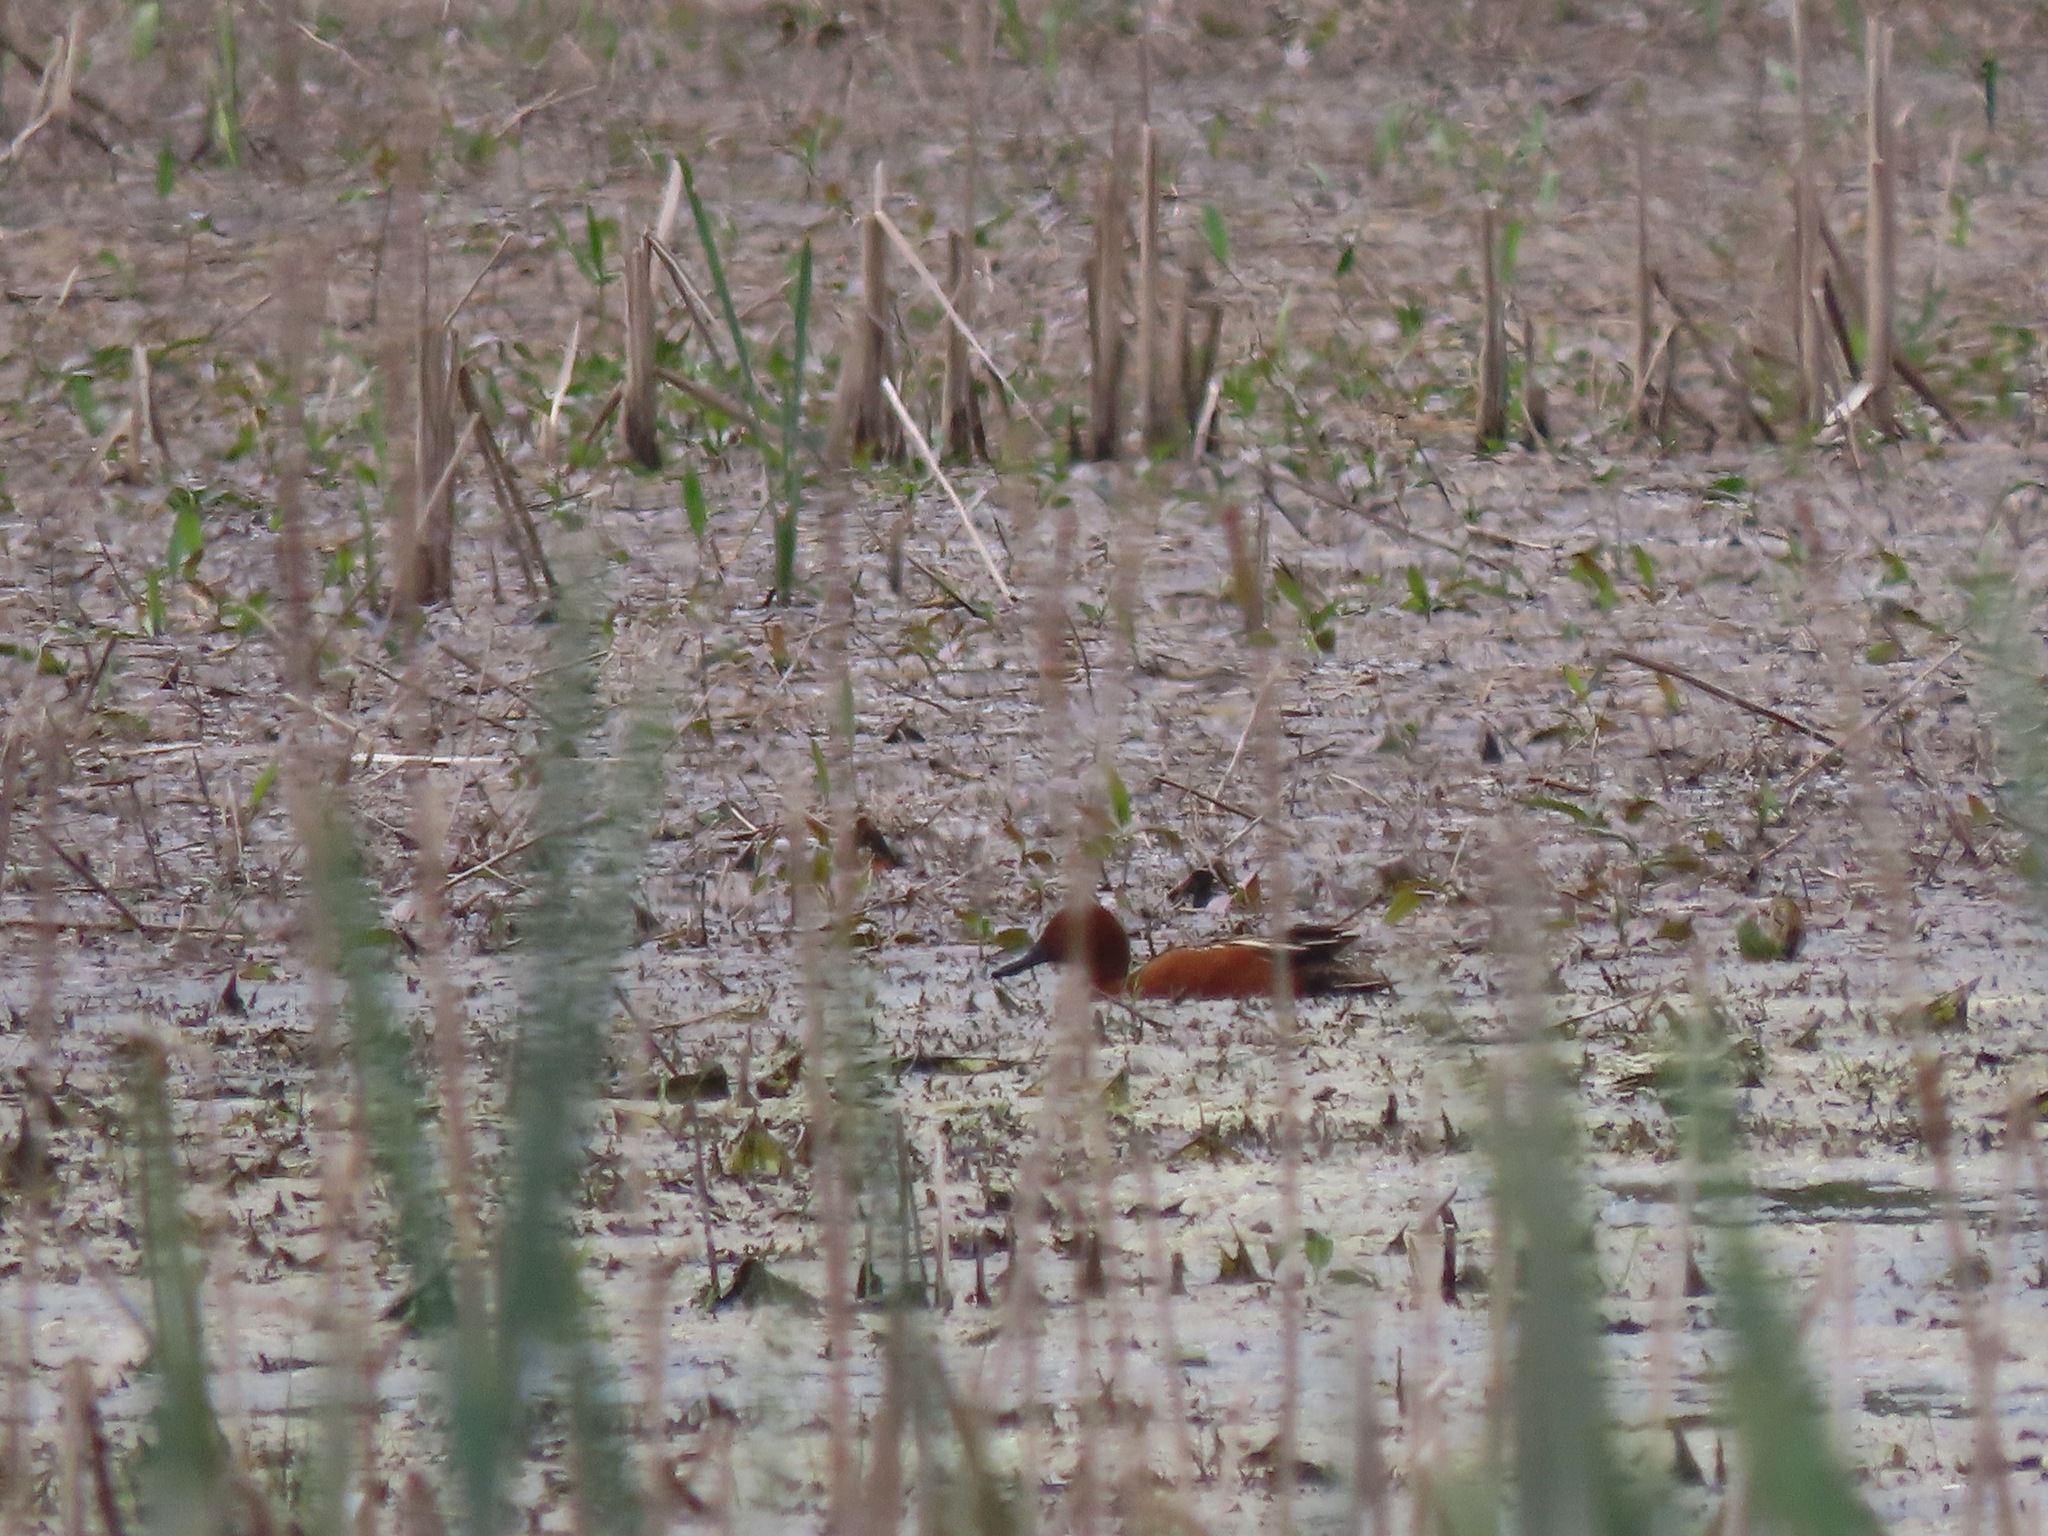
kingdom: Animalia
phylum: Chordata
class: Aves
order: Anseriformes
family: Anatidae
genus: Spatula
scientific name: Spatula cyanoptera
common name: Cinnamon teal
